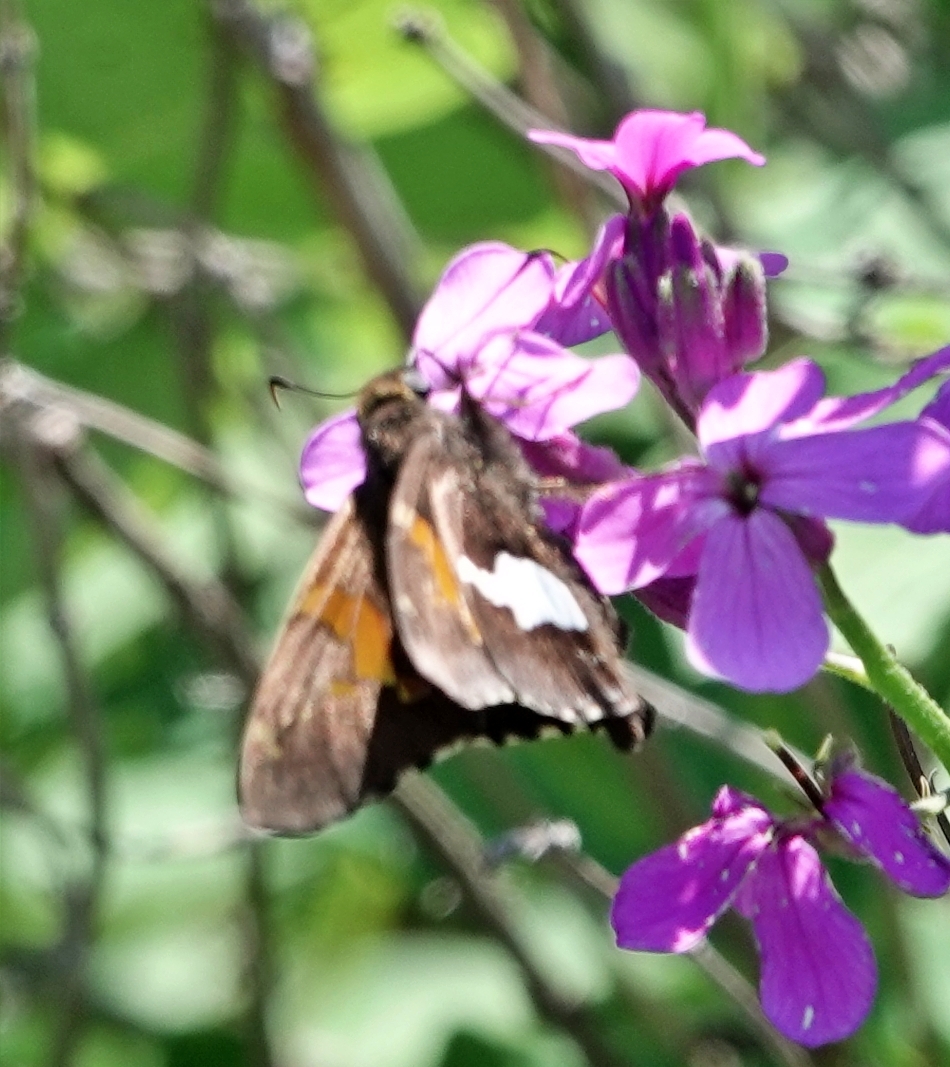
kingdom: Animalia
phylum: Arthropoda
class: Insecta
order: Lepidoptera
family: Hesperiidae
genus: Epargyreus
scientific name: Epargyreus clarus
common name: Silver-spotted skipper
